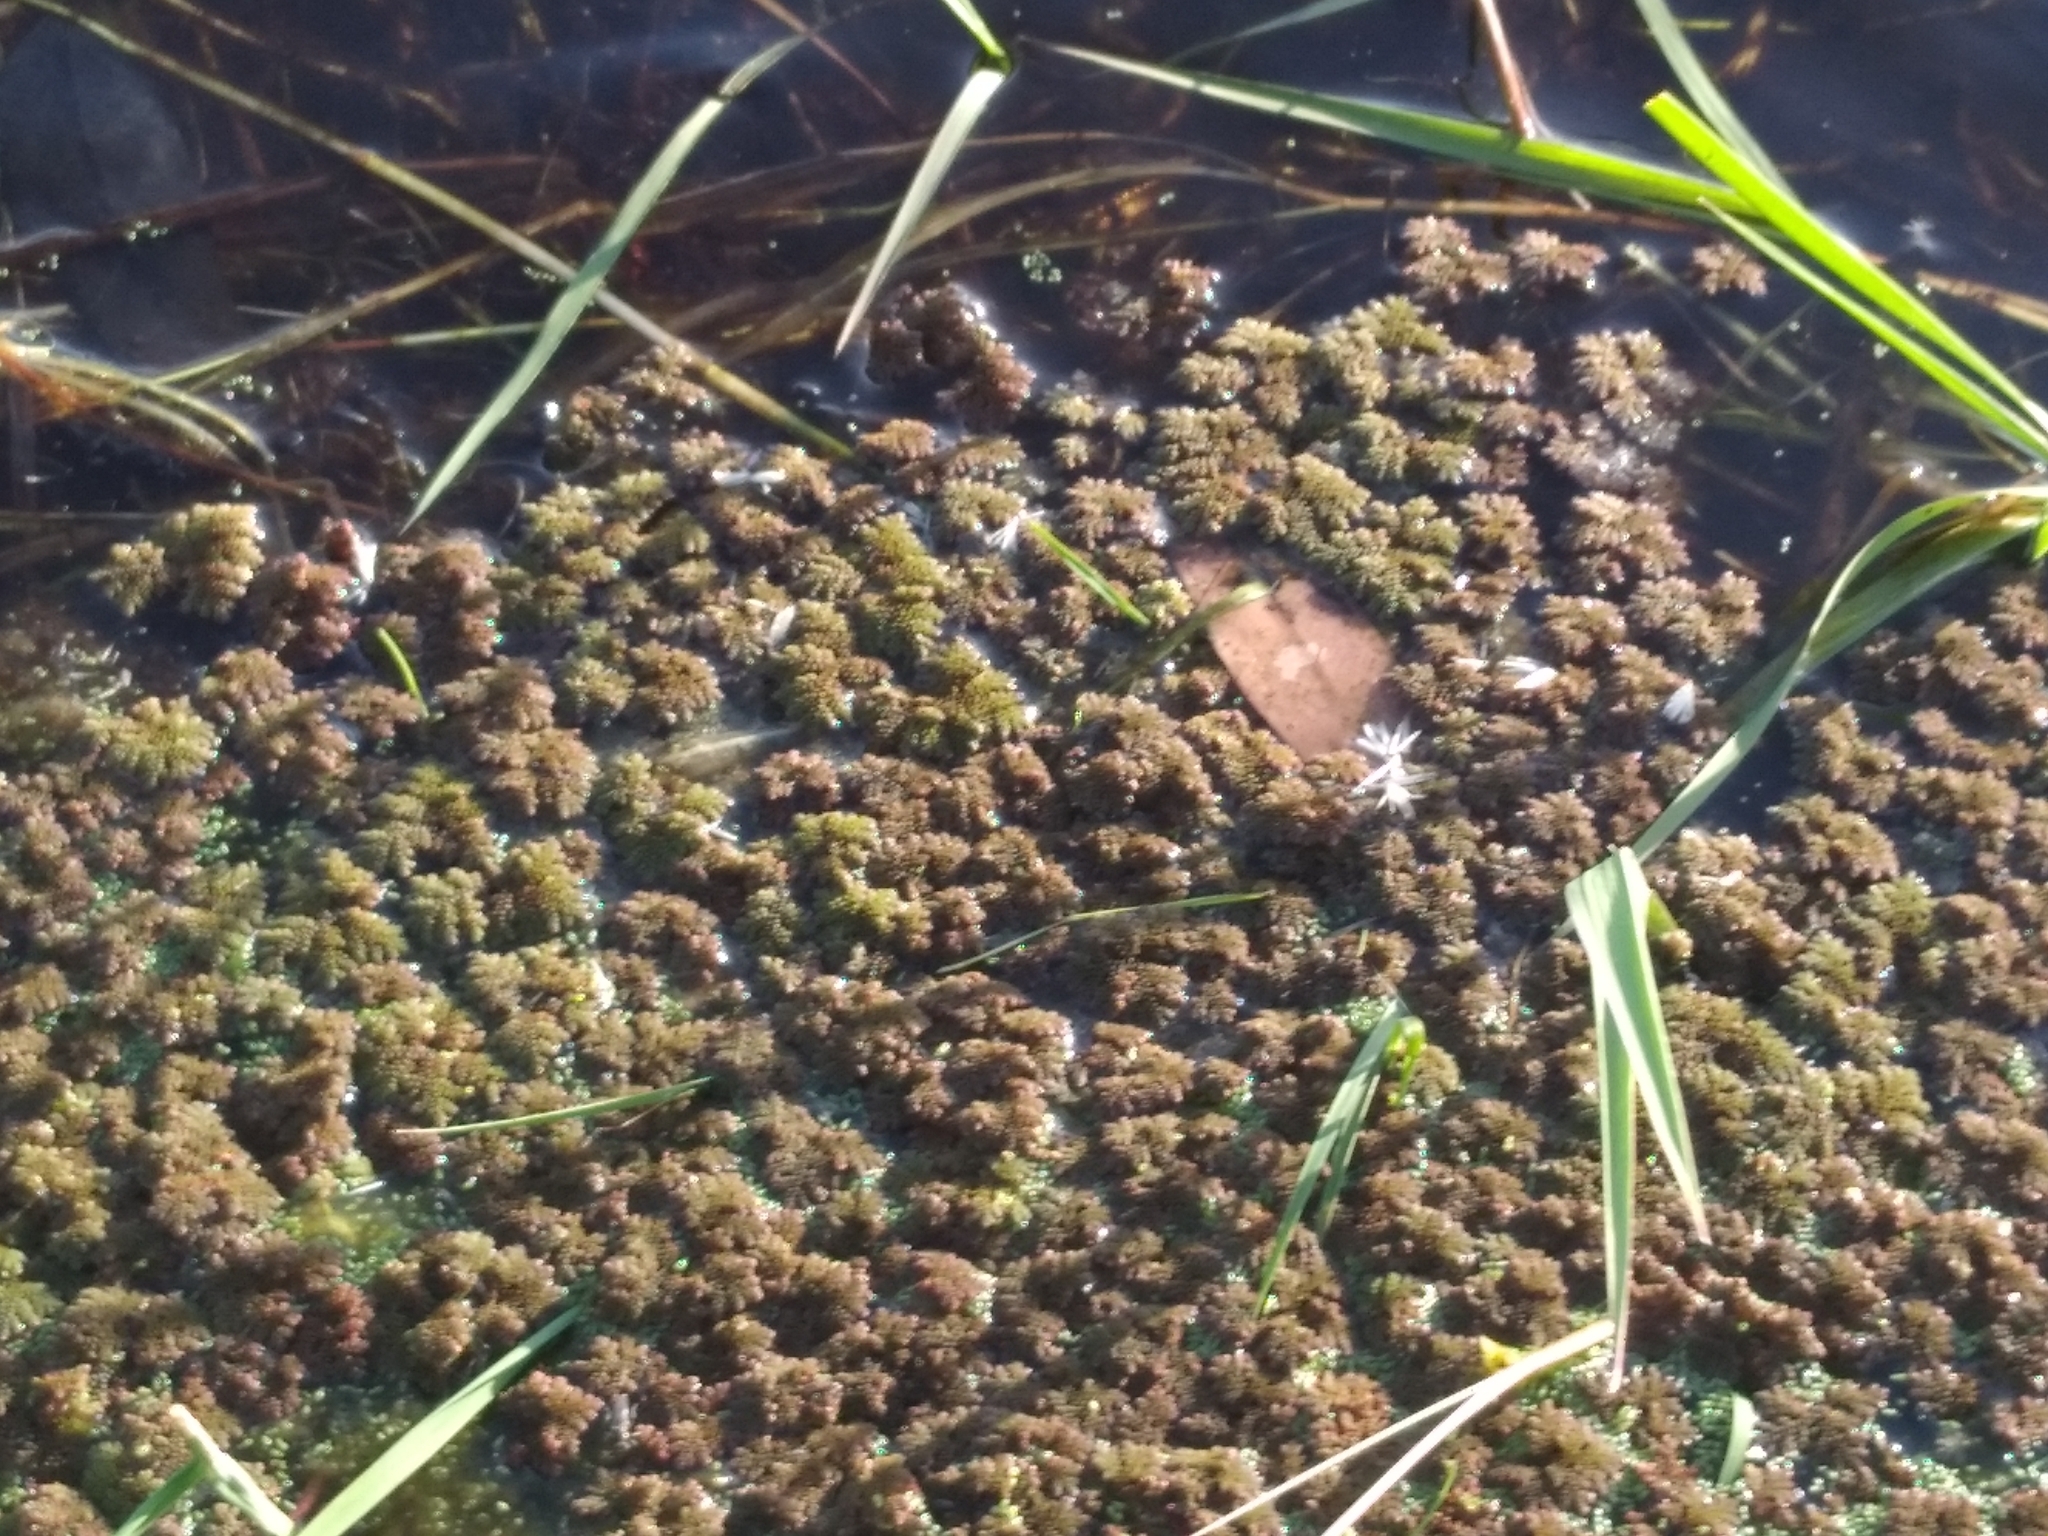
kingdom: Plantae
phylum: Tracheophyta
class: Polypodiopsida
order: Salviniales
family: Salviniaceae
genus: Azolla
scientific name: Azolla filiculoides
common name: Water fern
